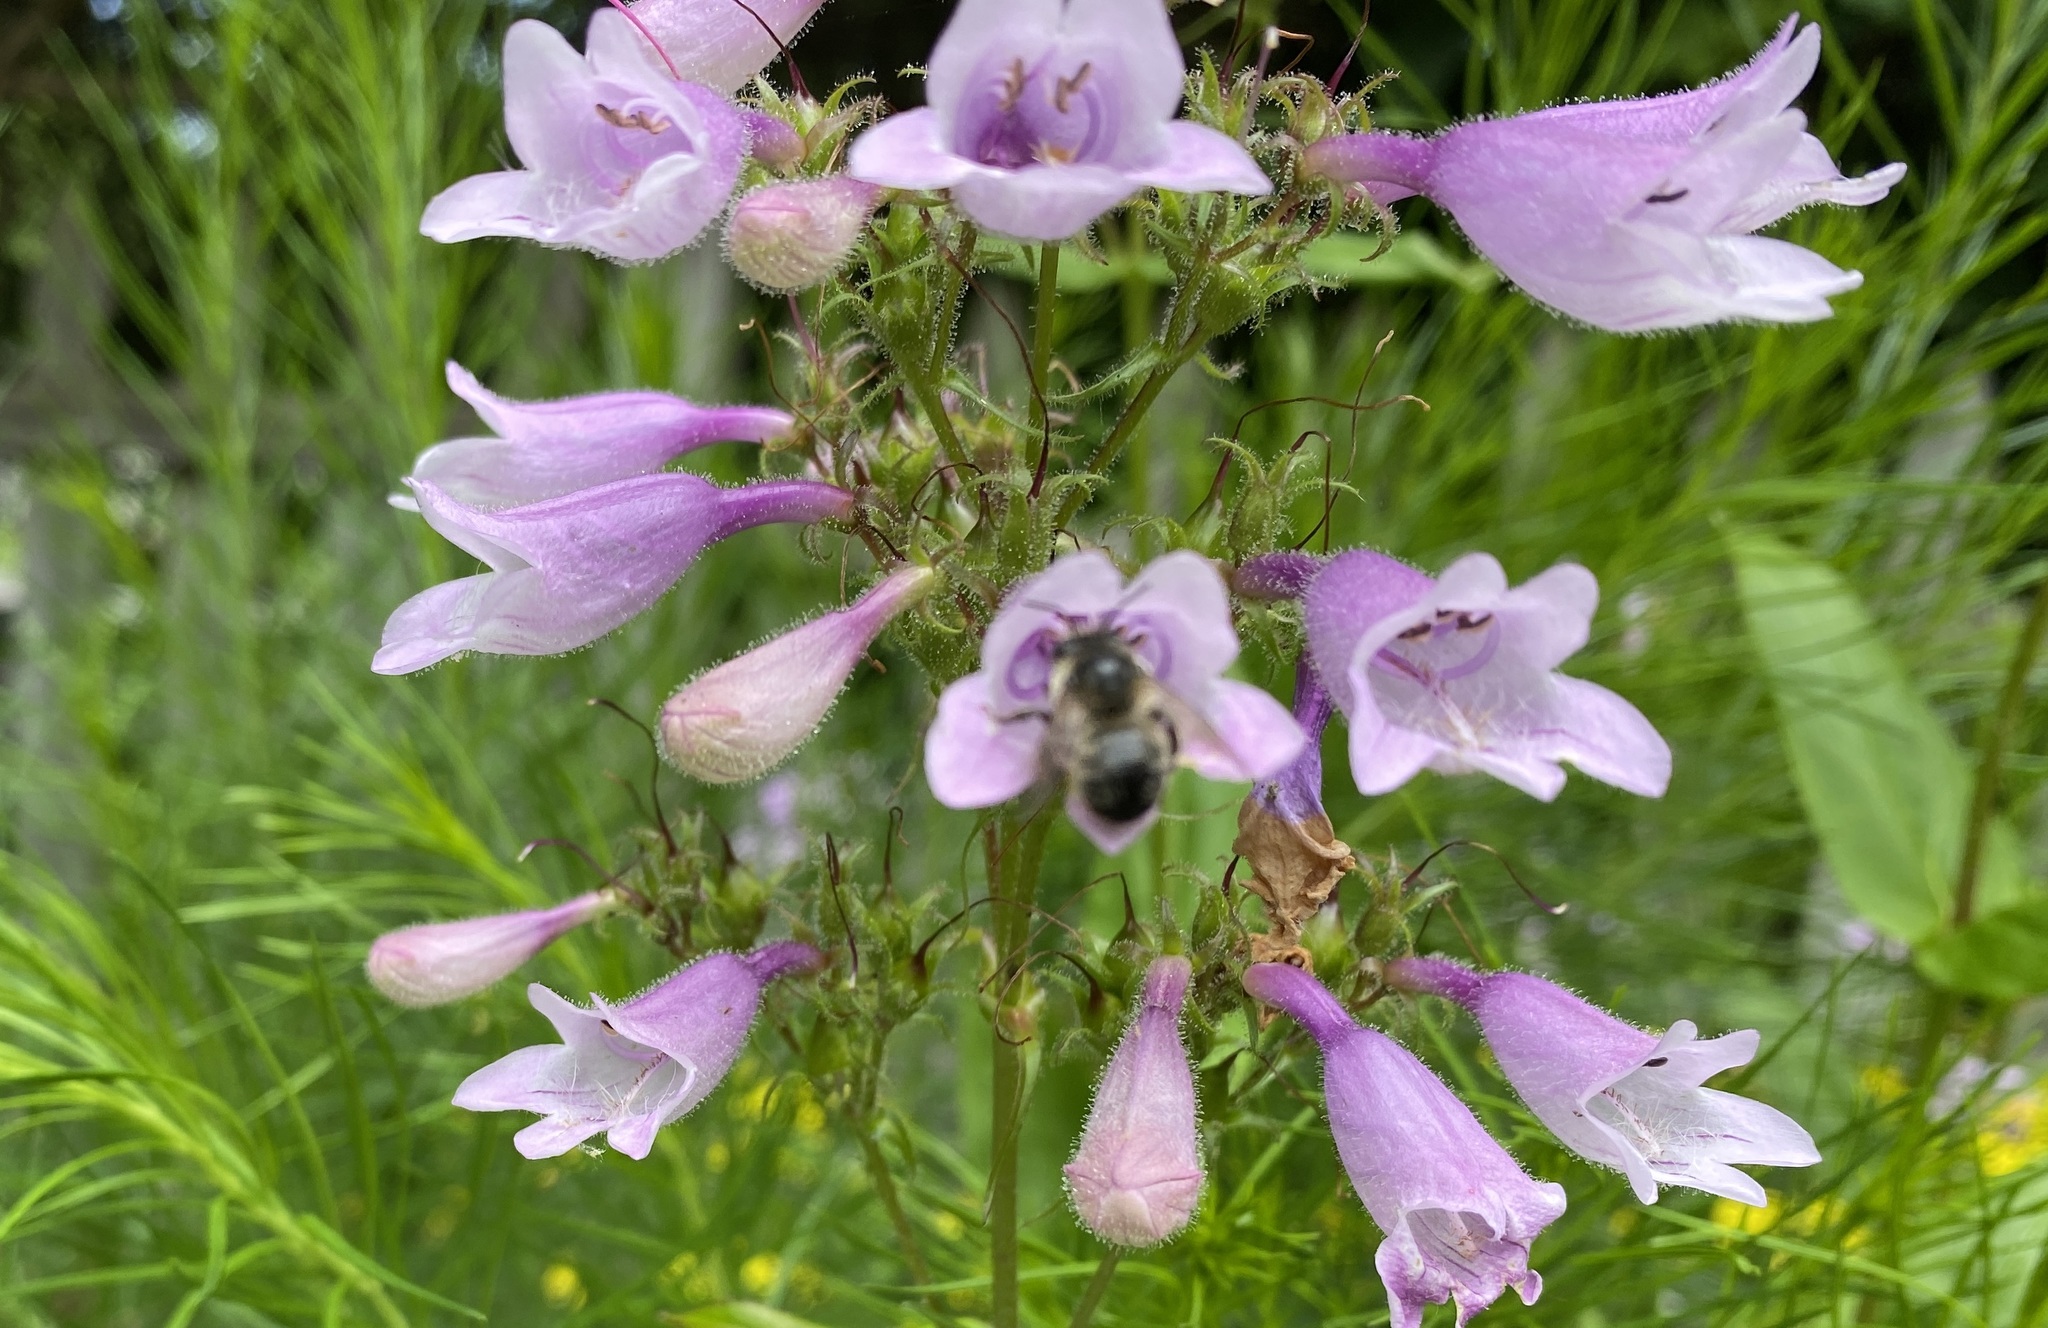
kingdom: Animalia
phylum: Arthropoda
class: Insecta
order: Hymenoptera
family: Apidae
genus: Anthophora
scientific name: Anthophora terminalis
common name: Orange-tipped wood-digger bee
